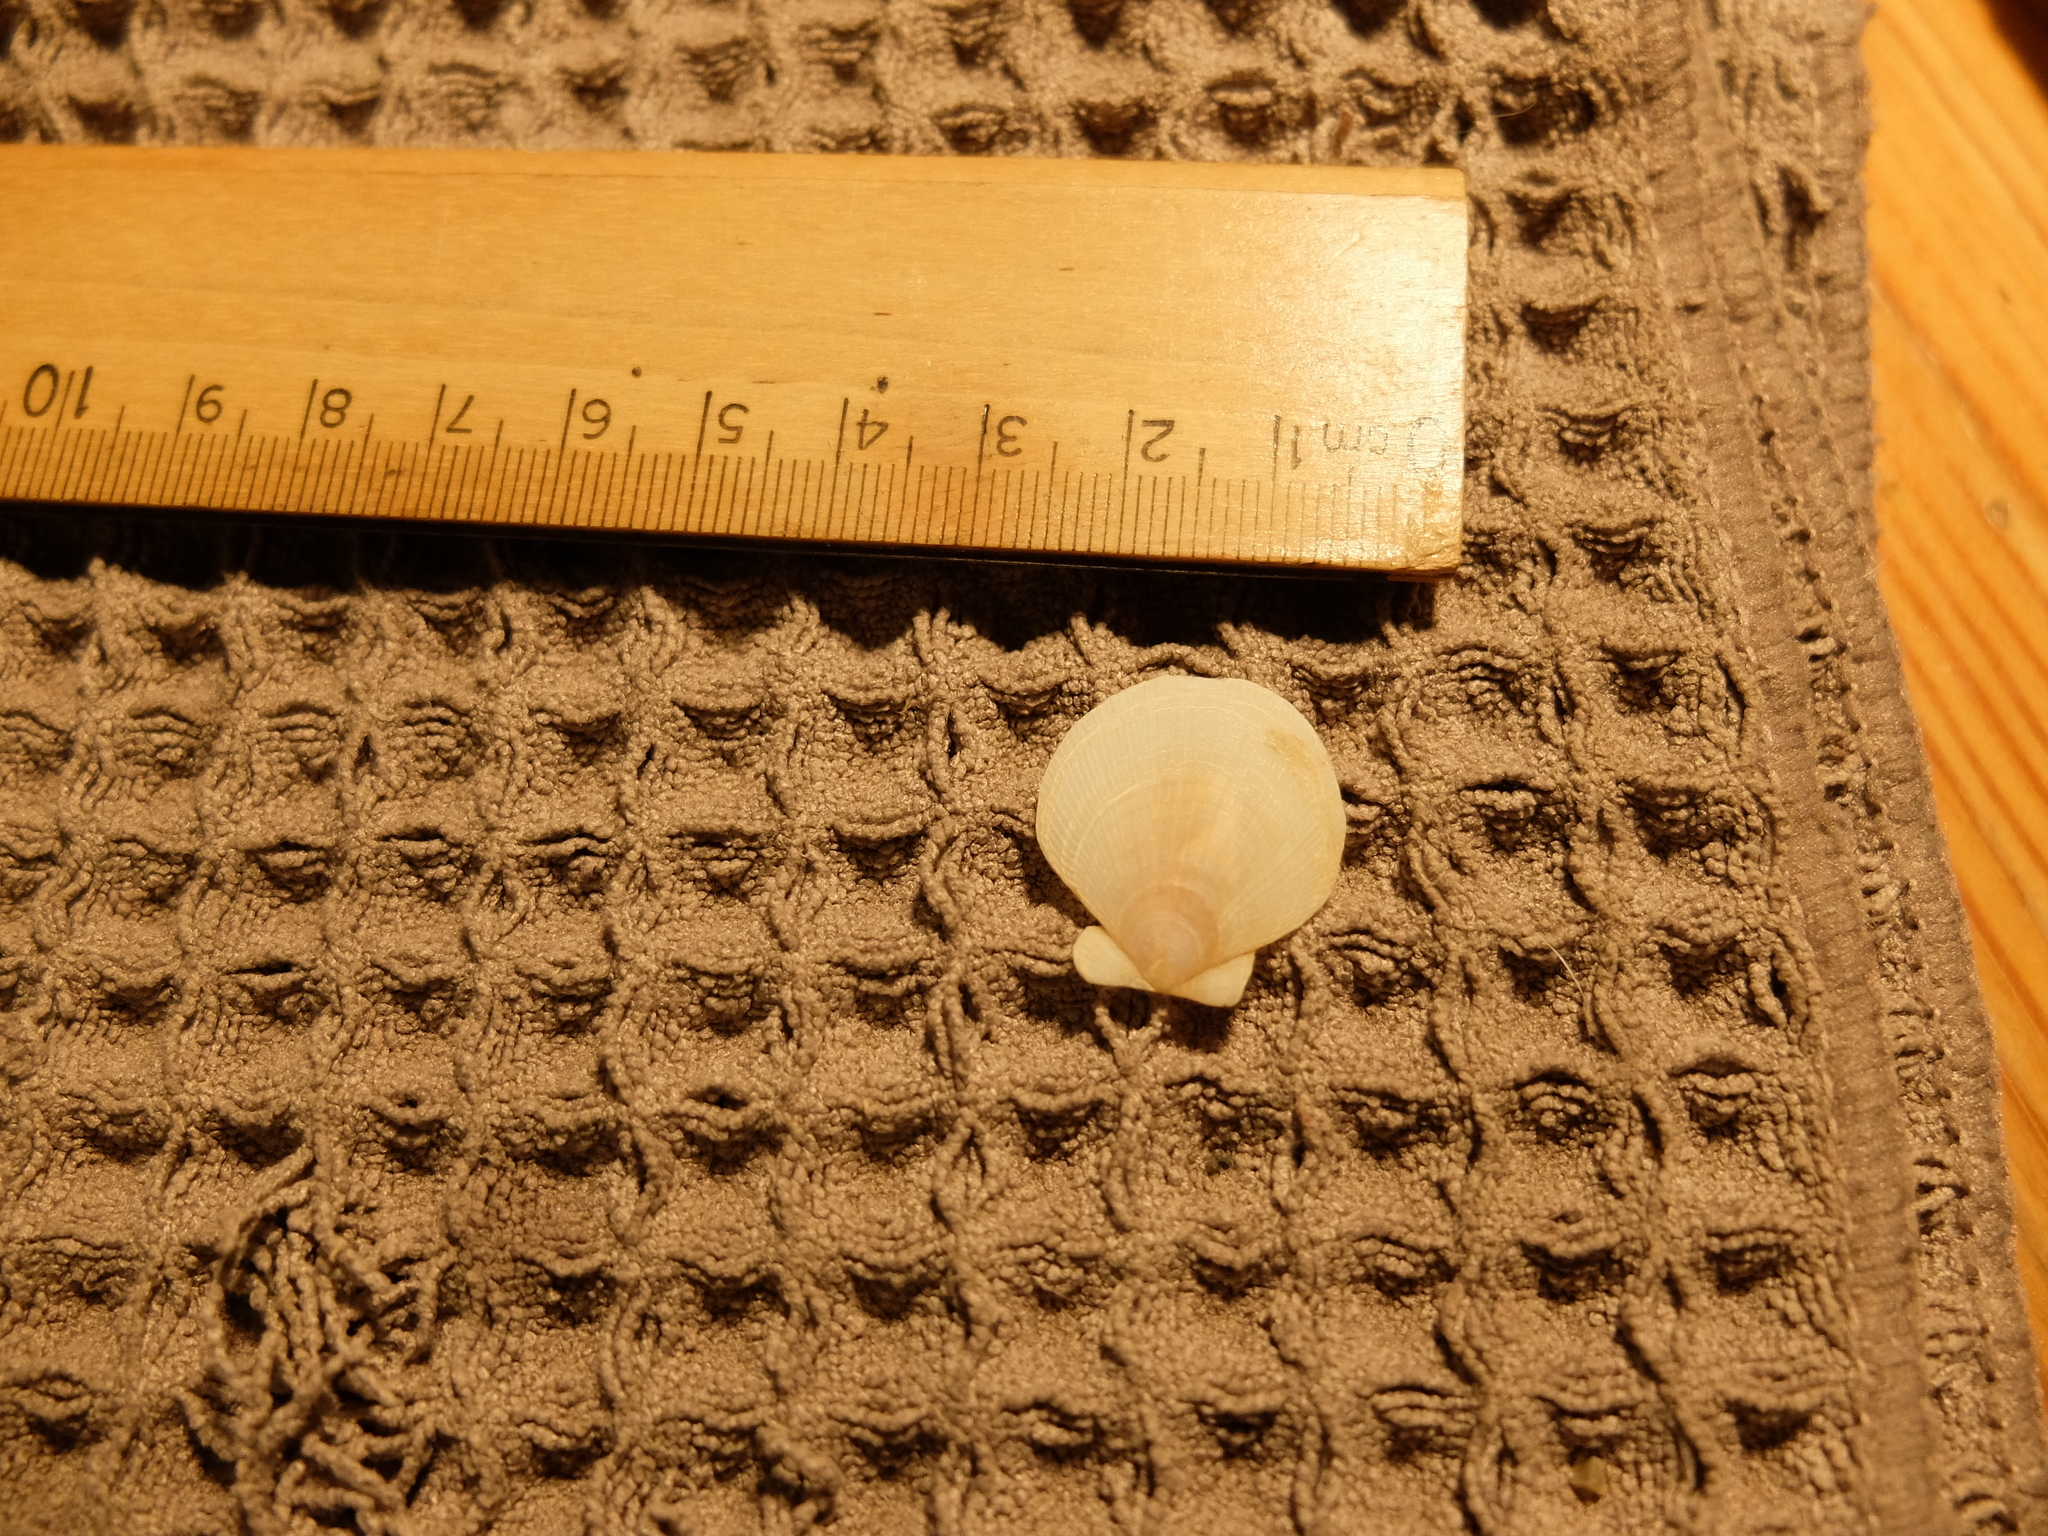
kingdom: Animalia
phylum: Mollusca
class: Bivalvia
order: Pectinida
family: Pectinidae
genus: Placopecten
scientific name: Placopecten magellanicus
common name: American sea scallop
